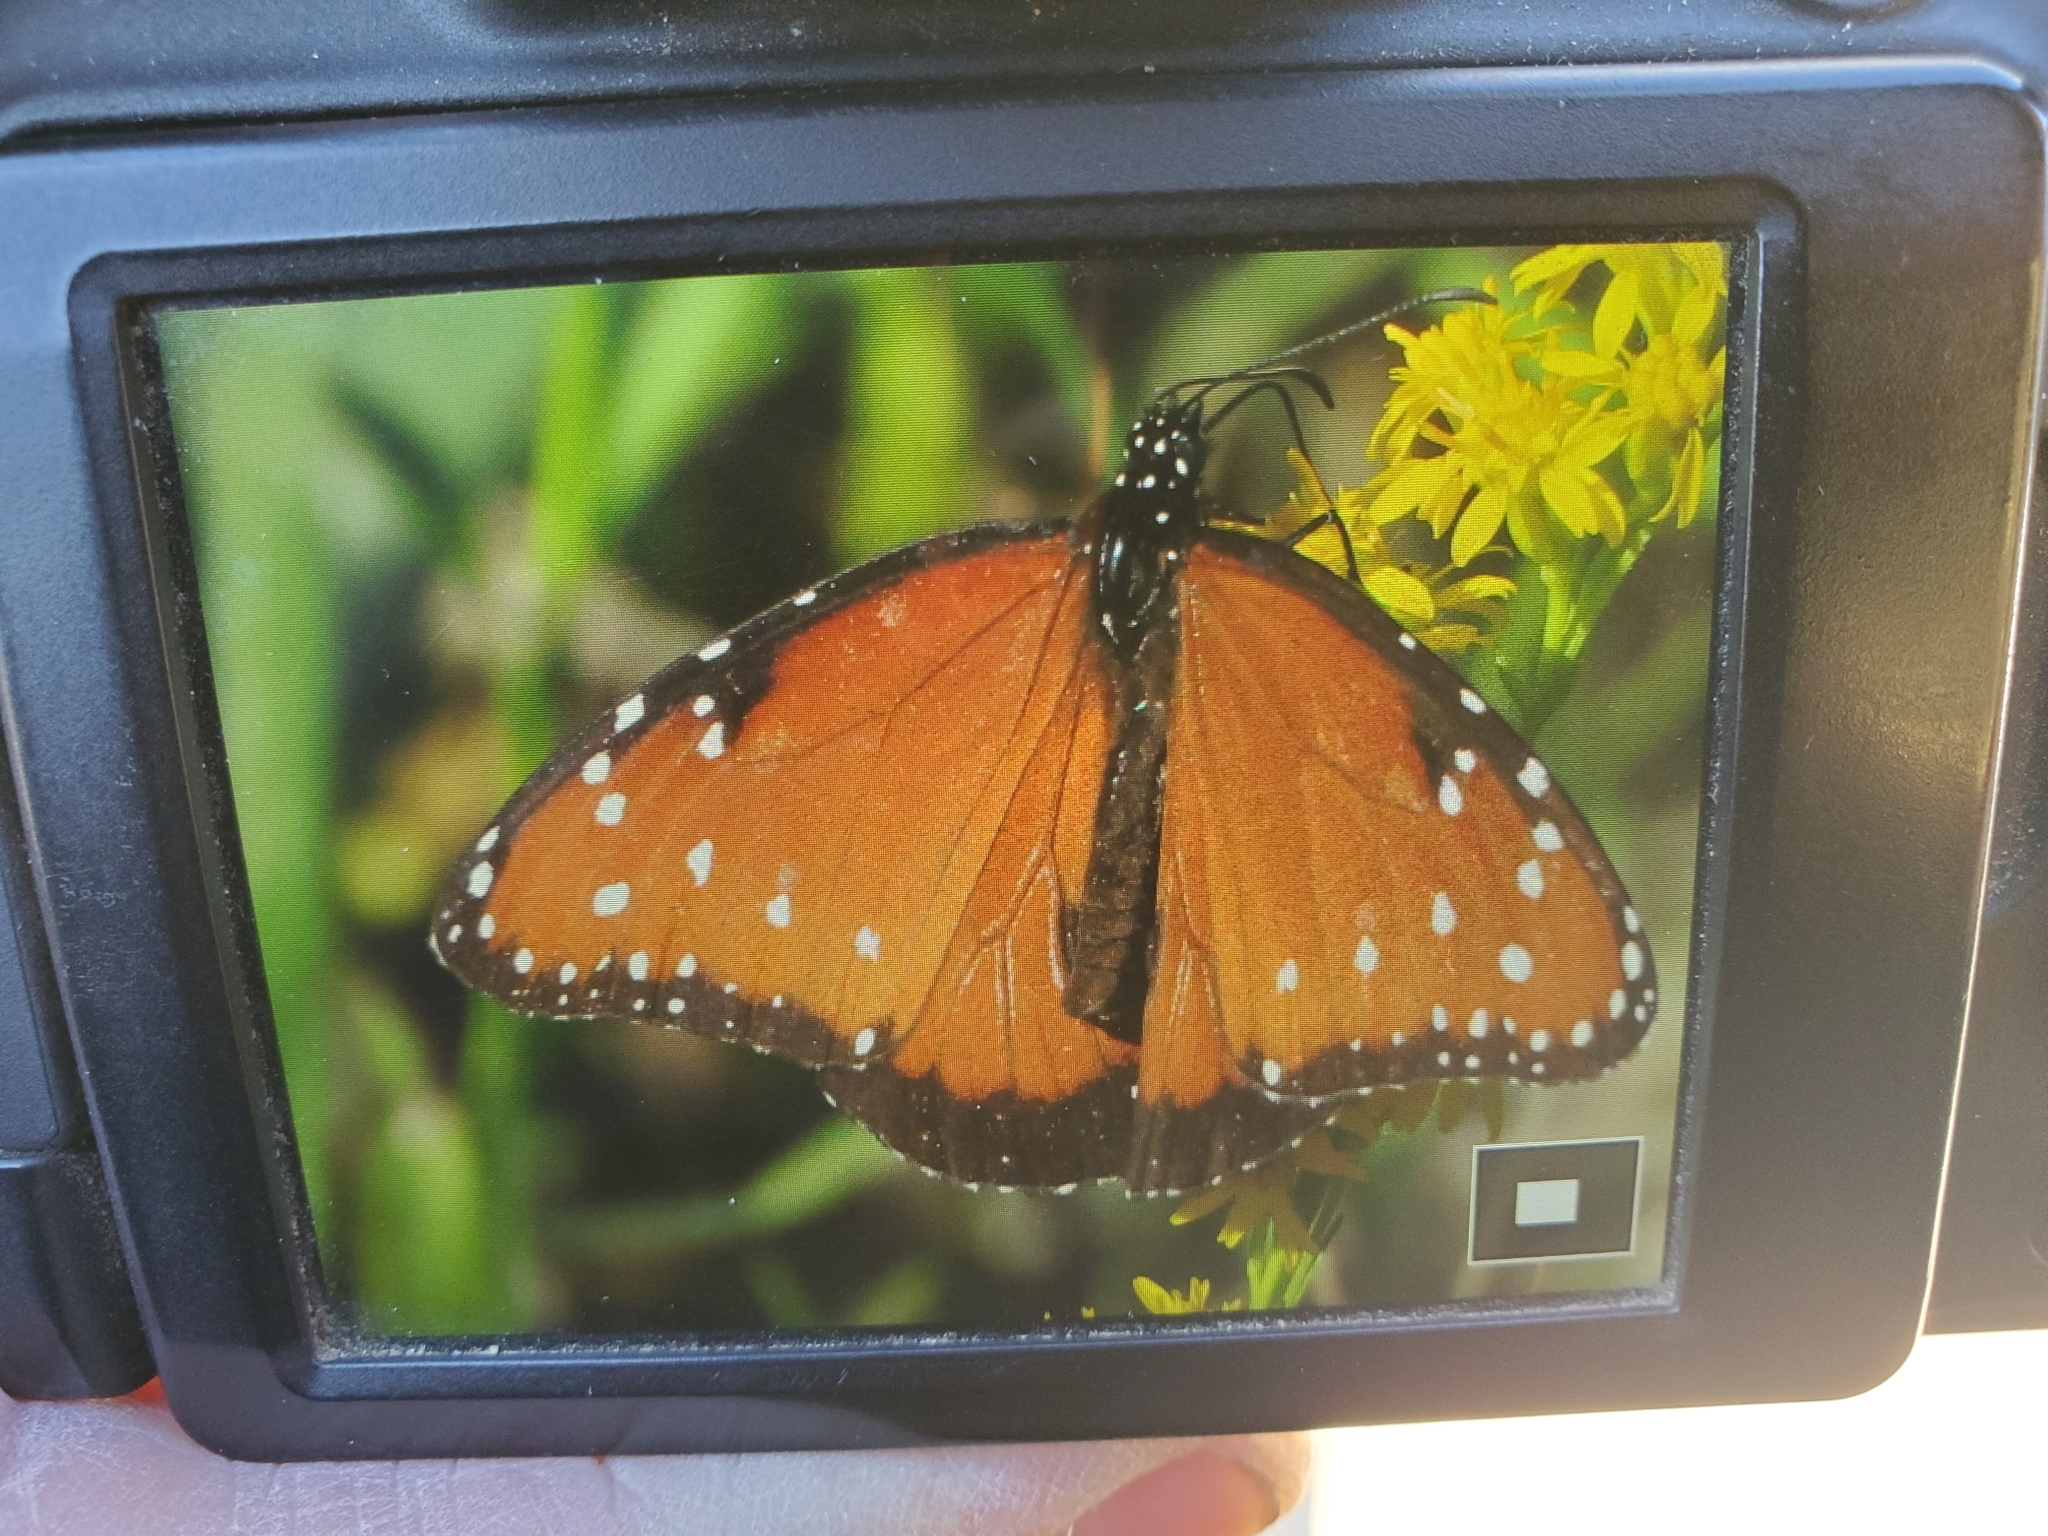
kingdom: Animalia
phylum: Arthropoda
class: Insecta
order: Lepidoptera
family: Nymphalidae
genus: Danaus
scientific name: Danaus gilippus
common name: Queen
